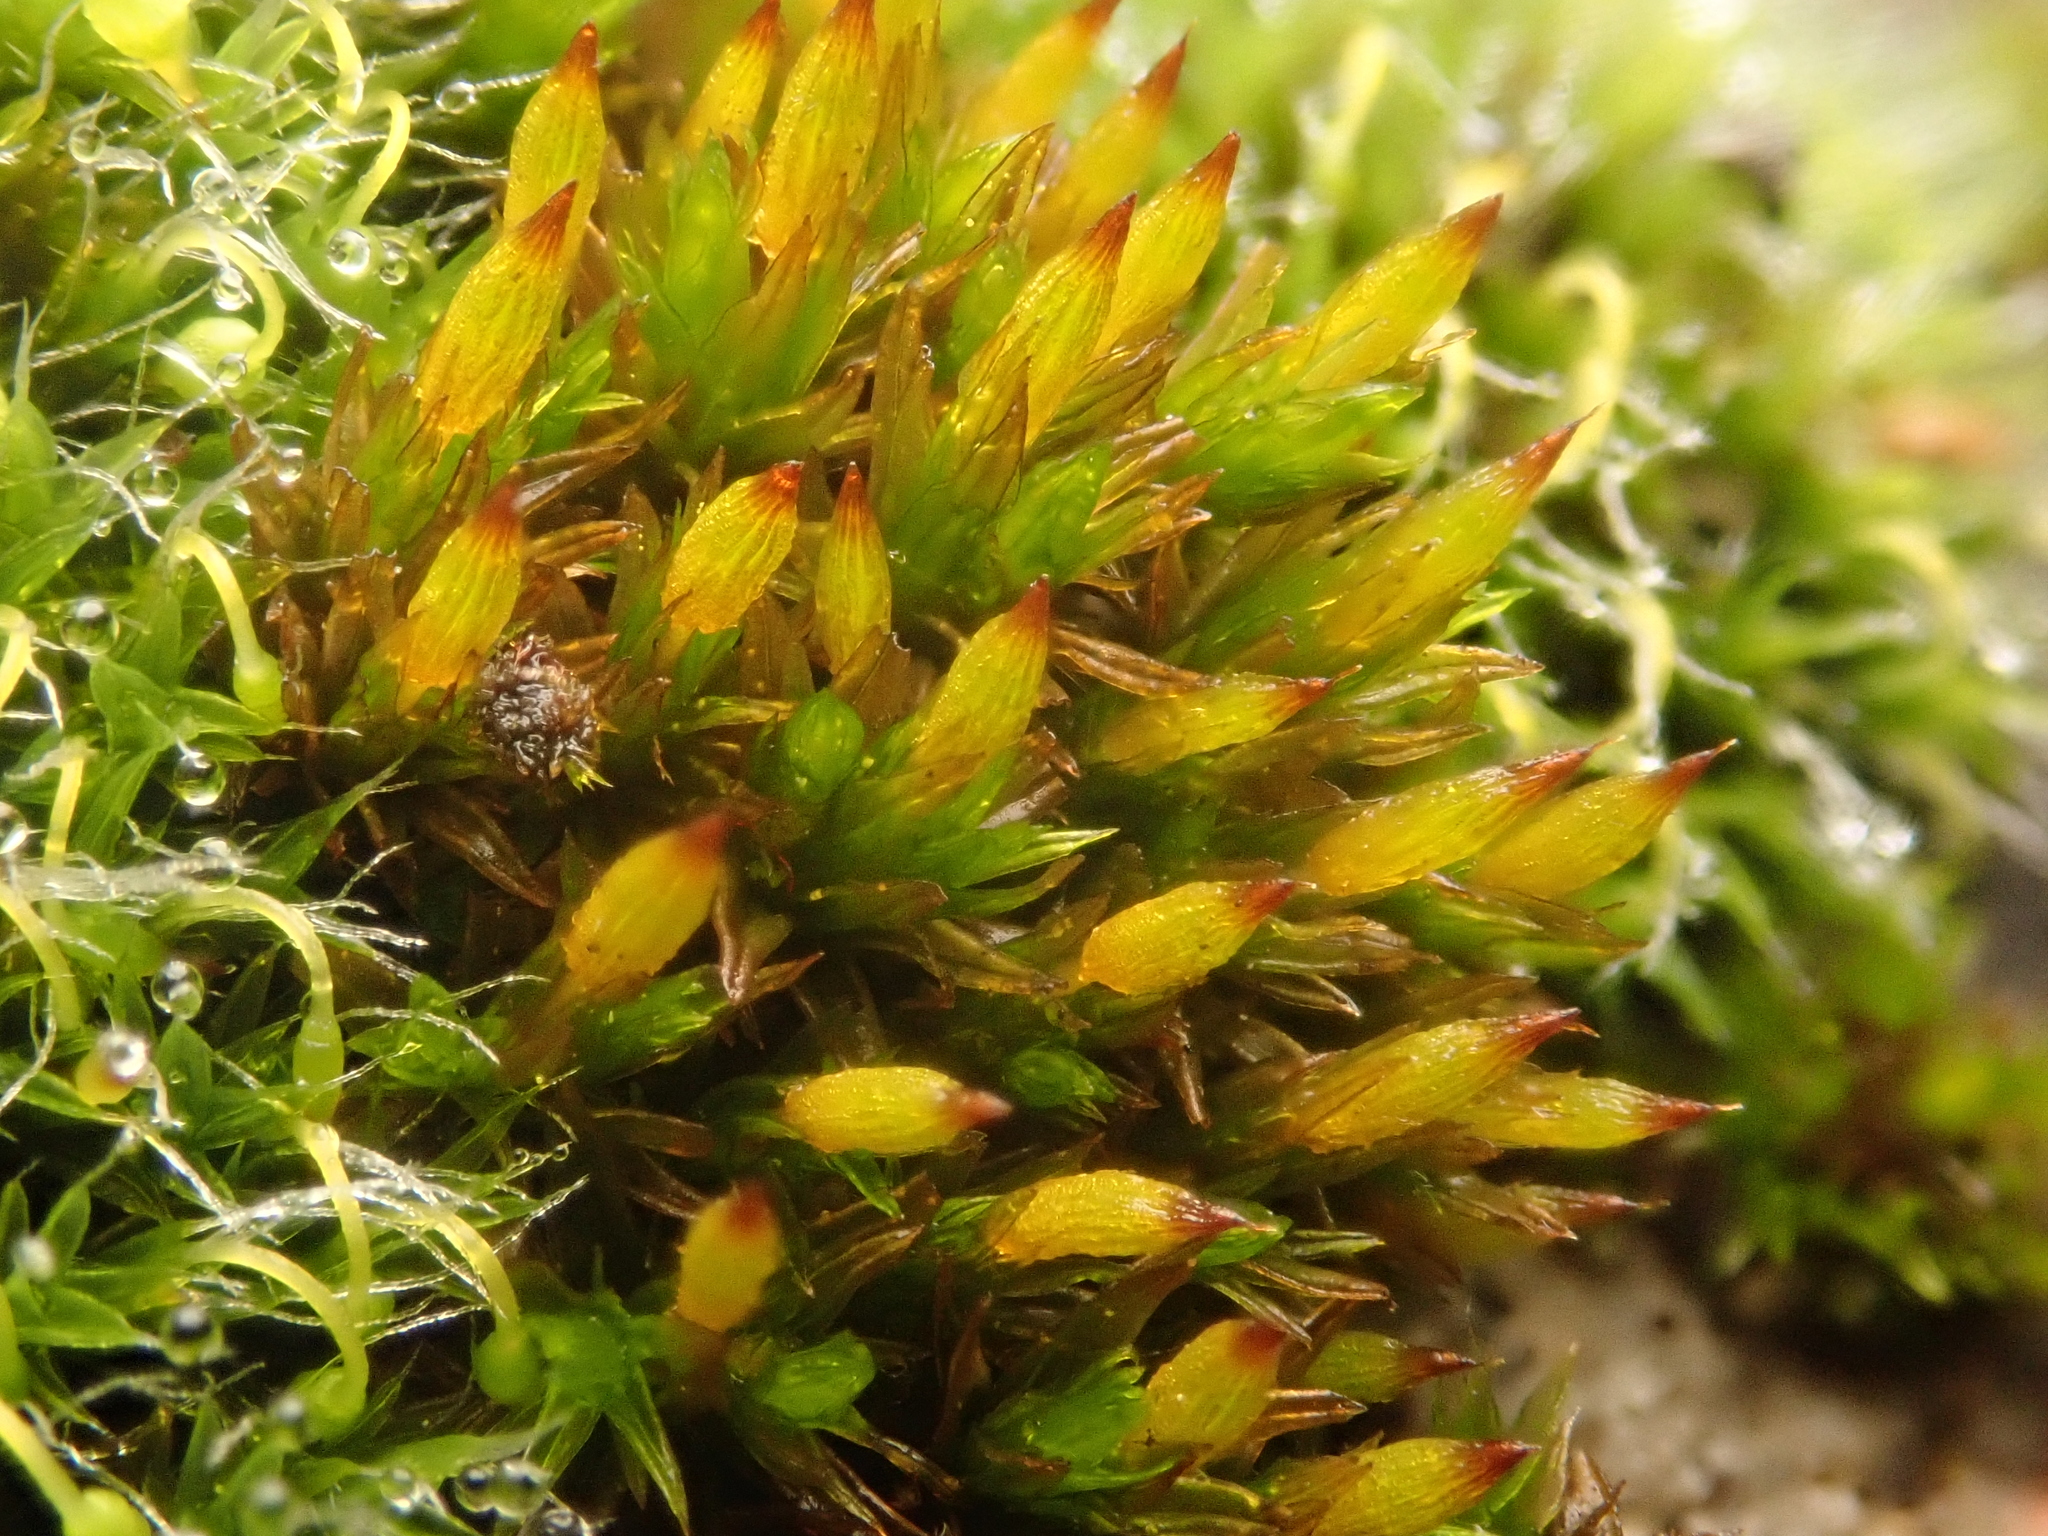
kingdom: Plantae
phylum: Bryophyta
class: Bryopsida
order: Orthotrichales
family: Orthotrichaceae
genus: Orthotrichum
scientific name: Orthotrichum anomalum
